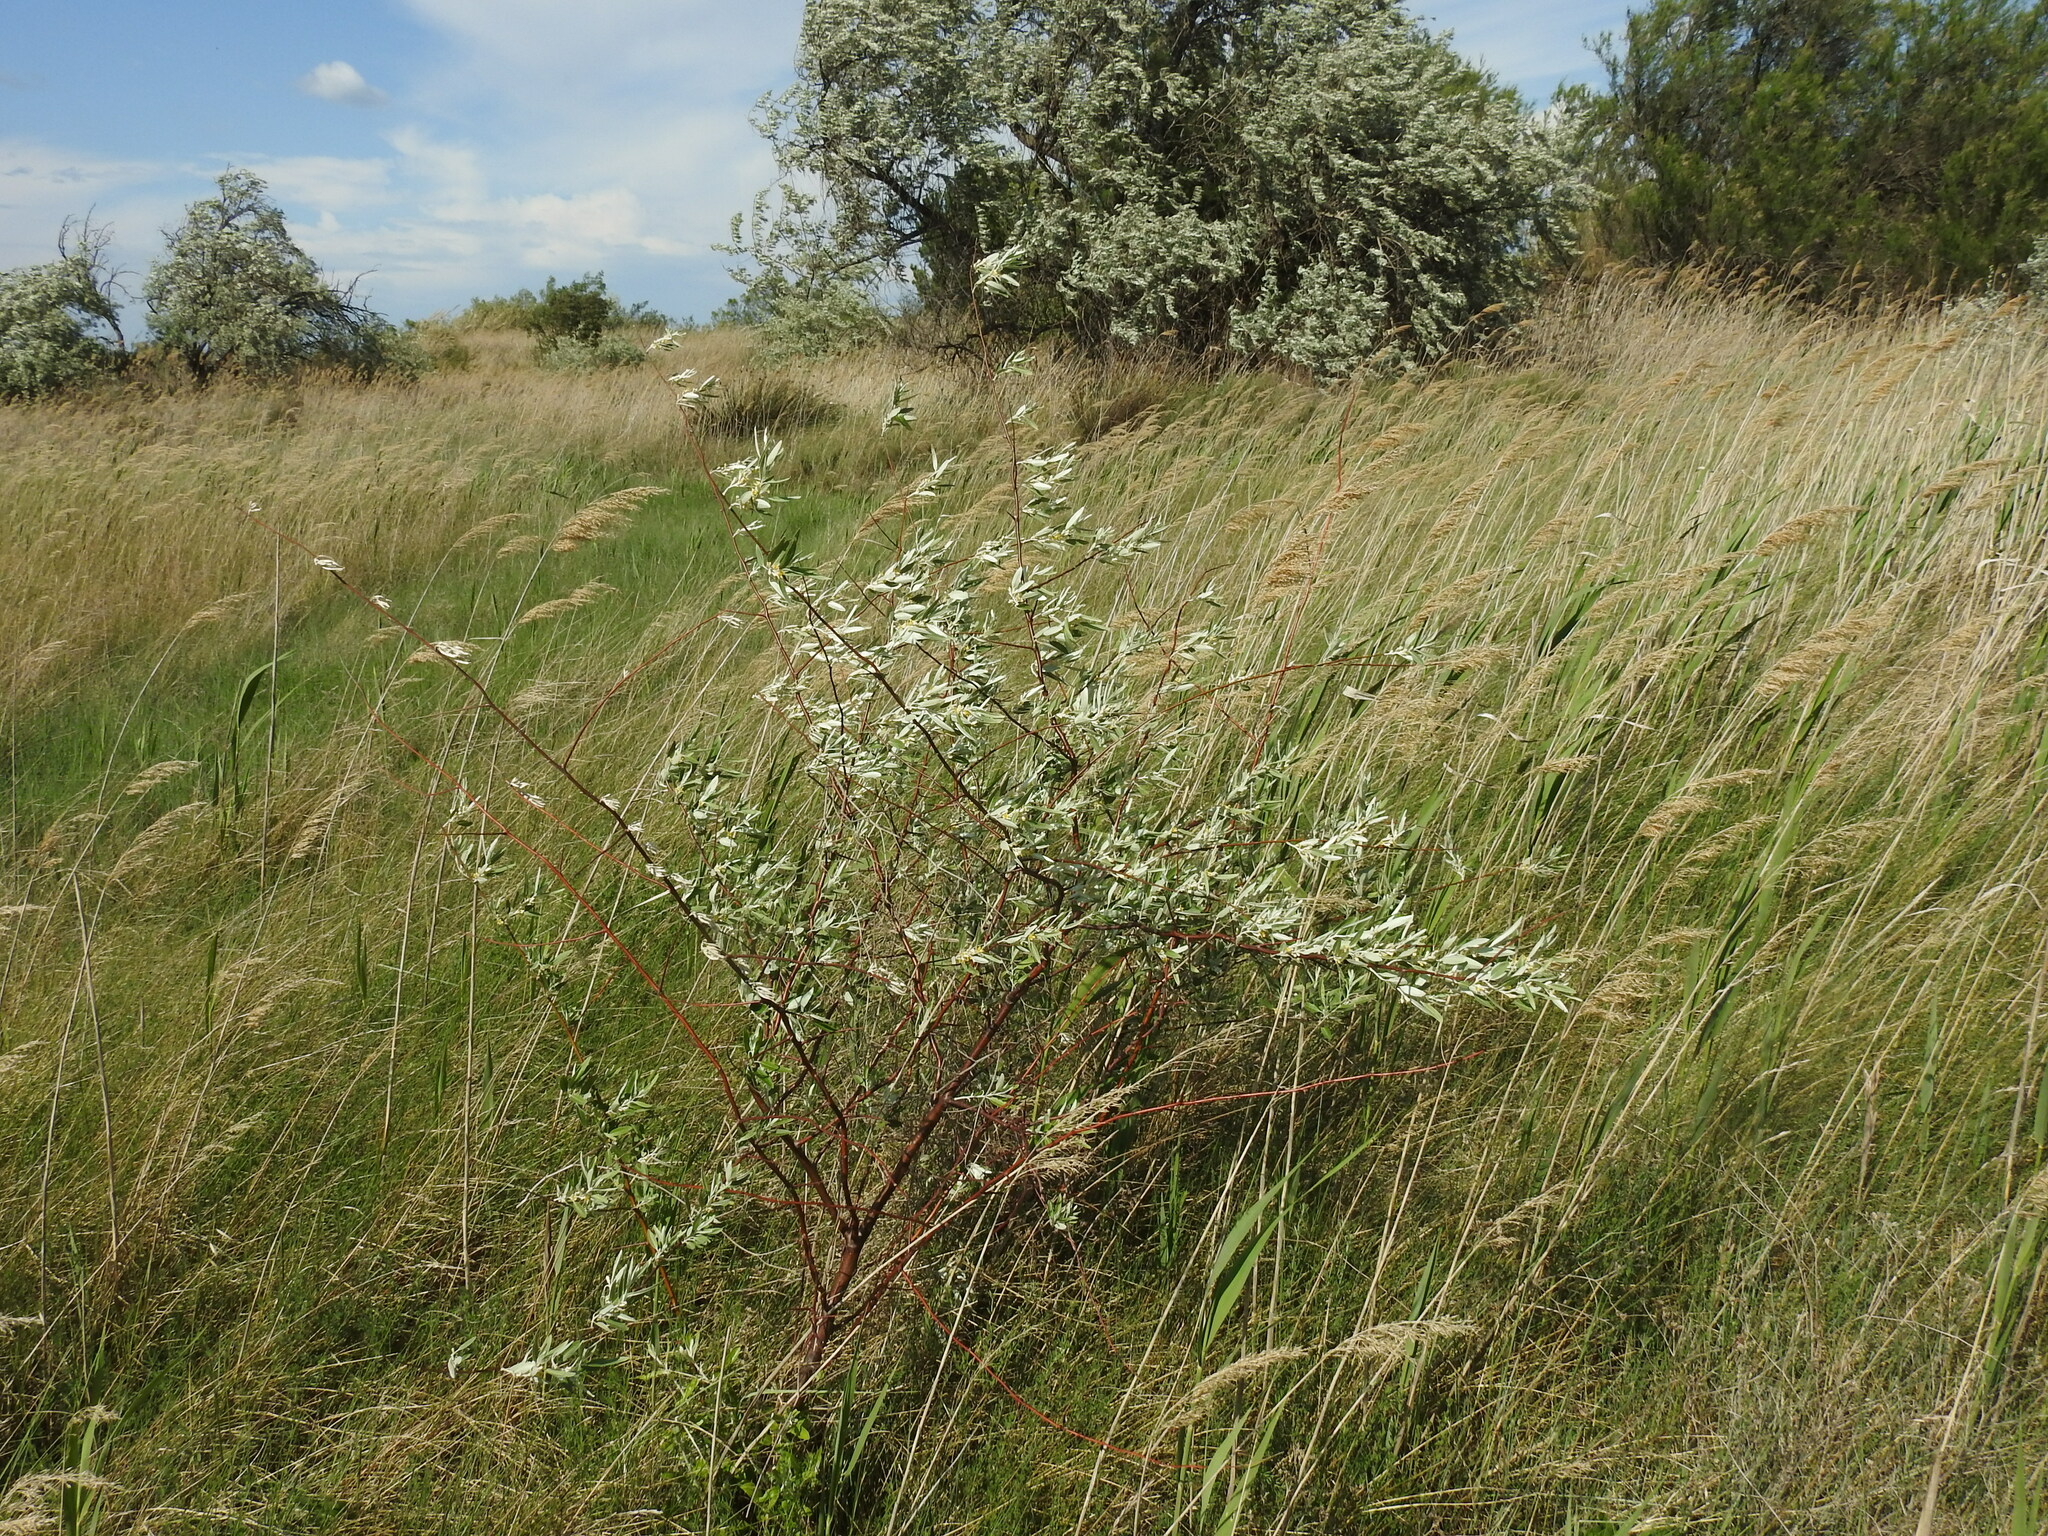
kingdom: Plantae
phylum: Tracheophyta
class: Magnoliopsida
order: Rosales
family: Elaeagnaceae
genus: Elaeagnus
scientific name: Elaeagnus angustifolia
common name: Russian olive
